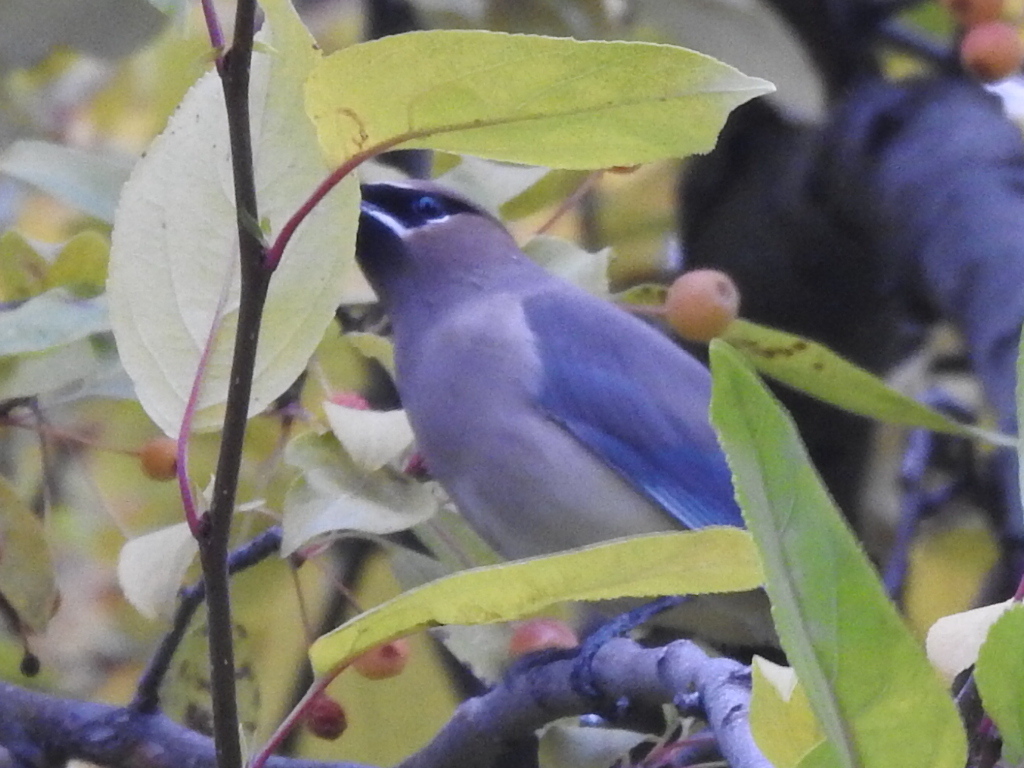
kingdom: Animalia
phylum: Chordata
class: Aves
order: Passeriformes
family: Bombycillidae
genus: Bombycilla
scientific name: Bombycilla cedrorum
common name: Cedar waxwing
